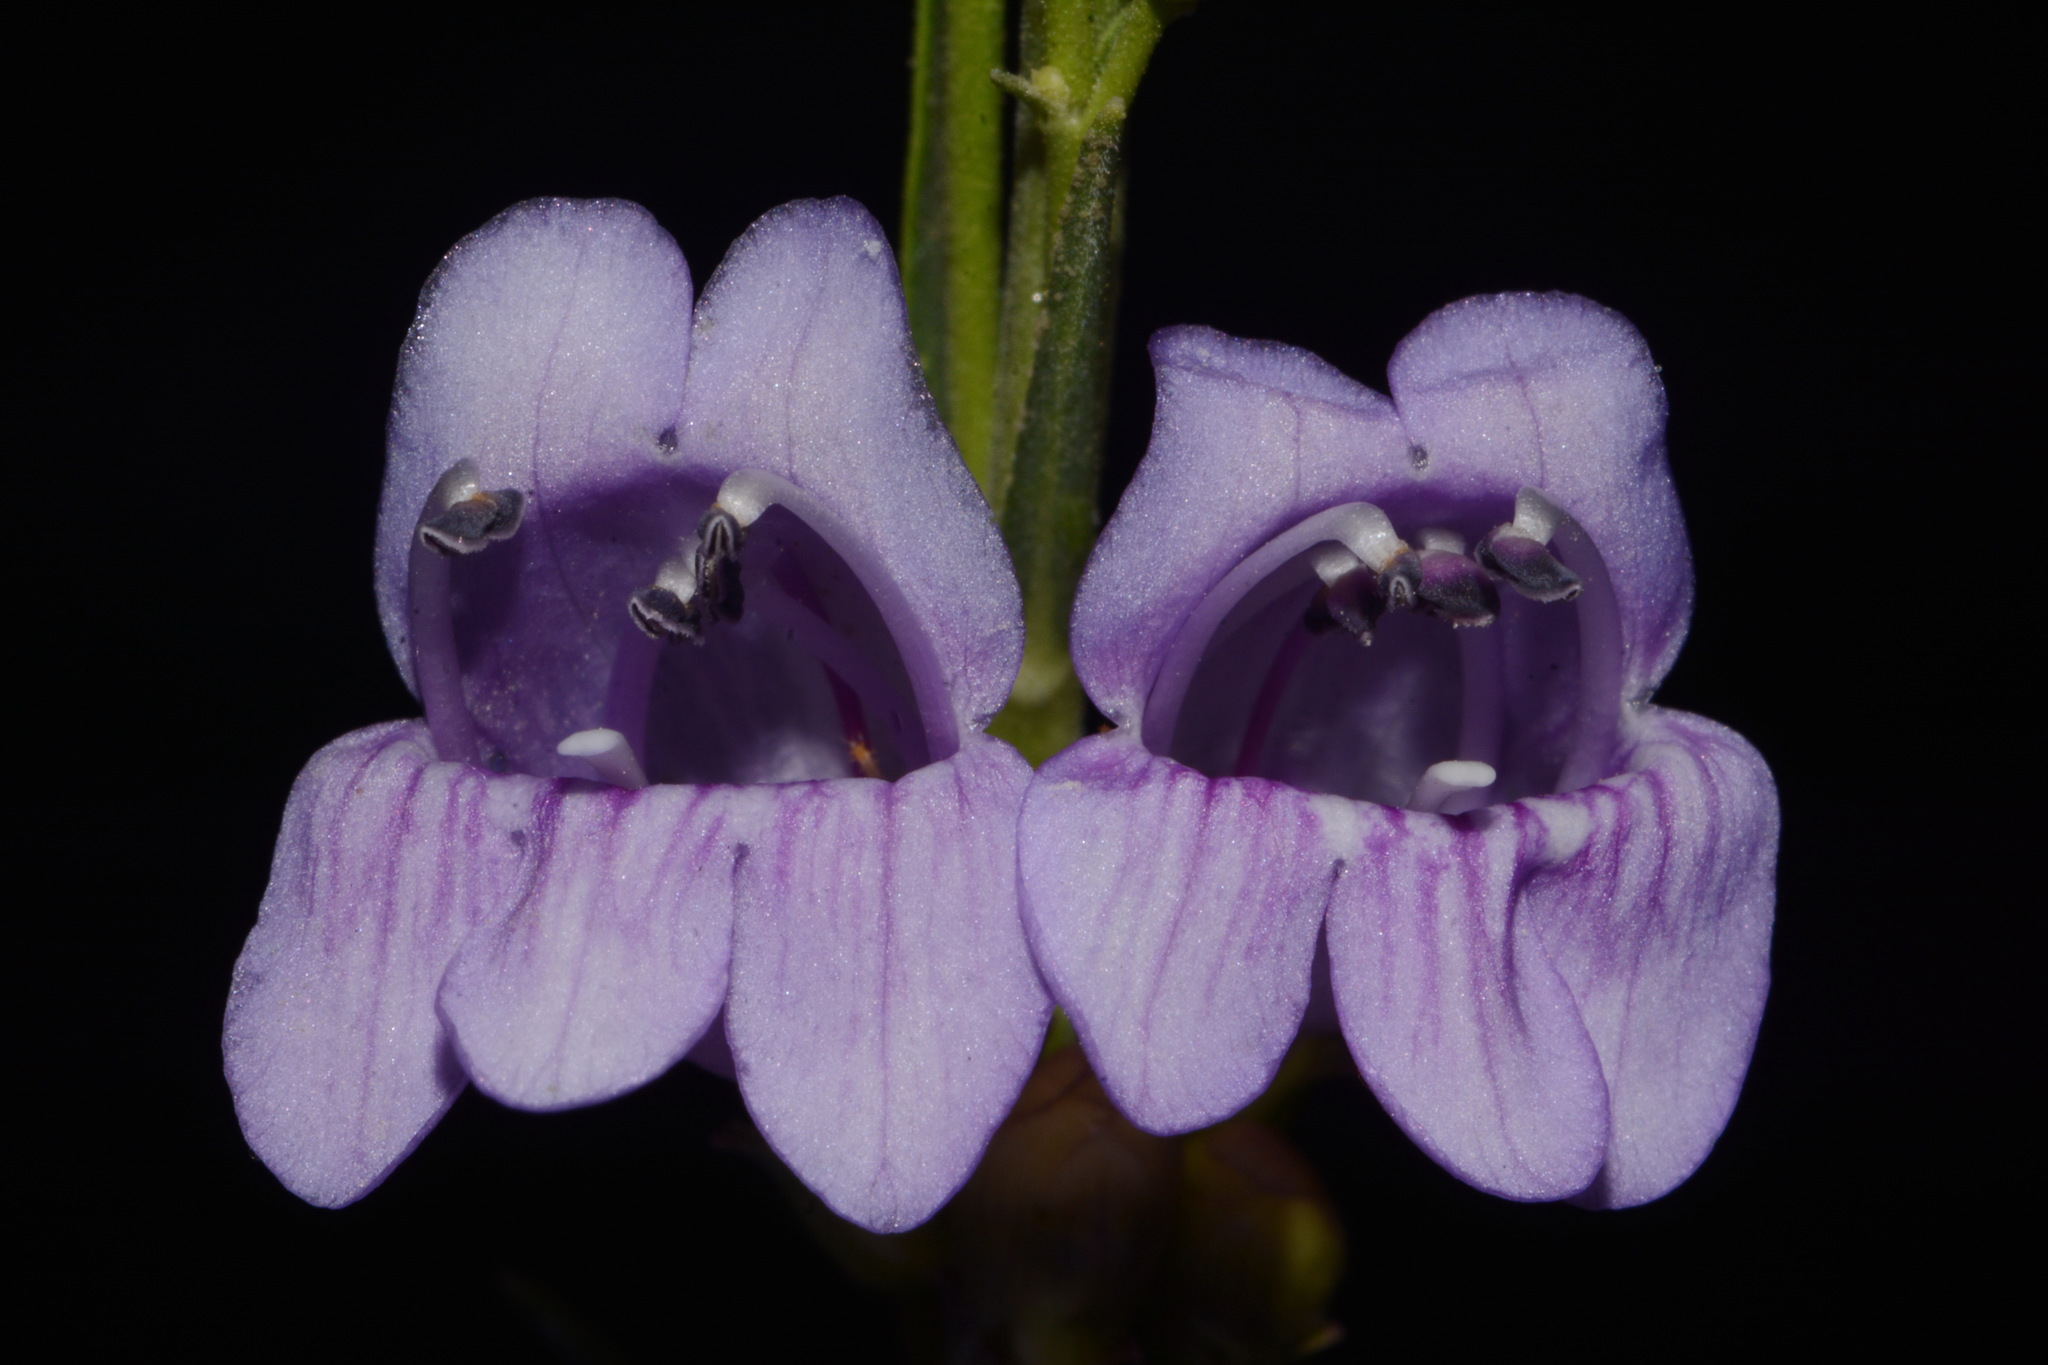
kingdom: Plantae
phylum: Tracheophyta
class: Magnoliopsida
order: Lamiales
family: Plantaginaceae
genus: Penstemon
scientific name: Penstemon pseudoputus
